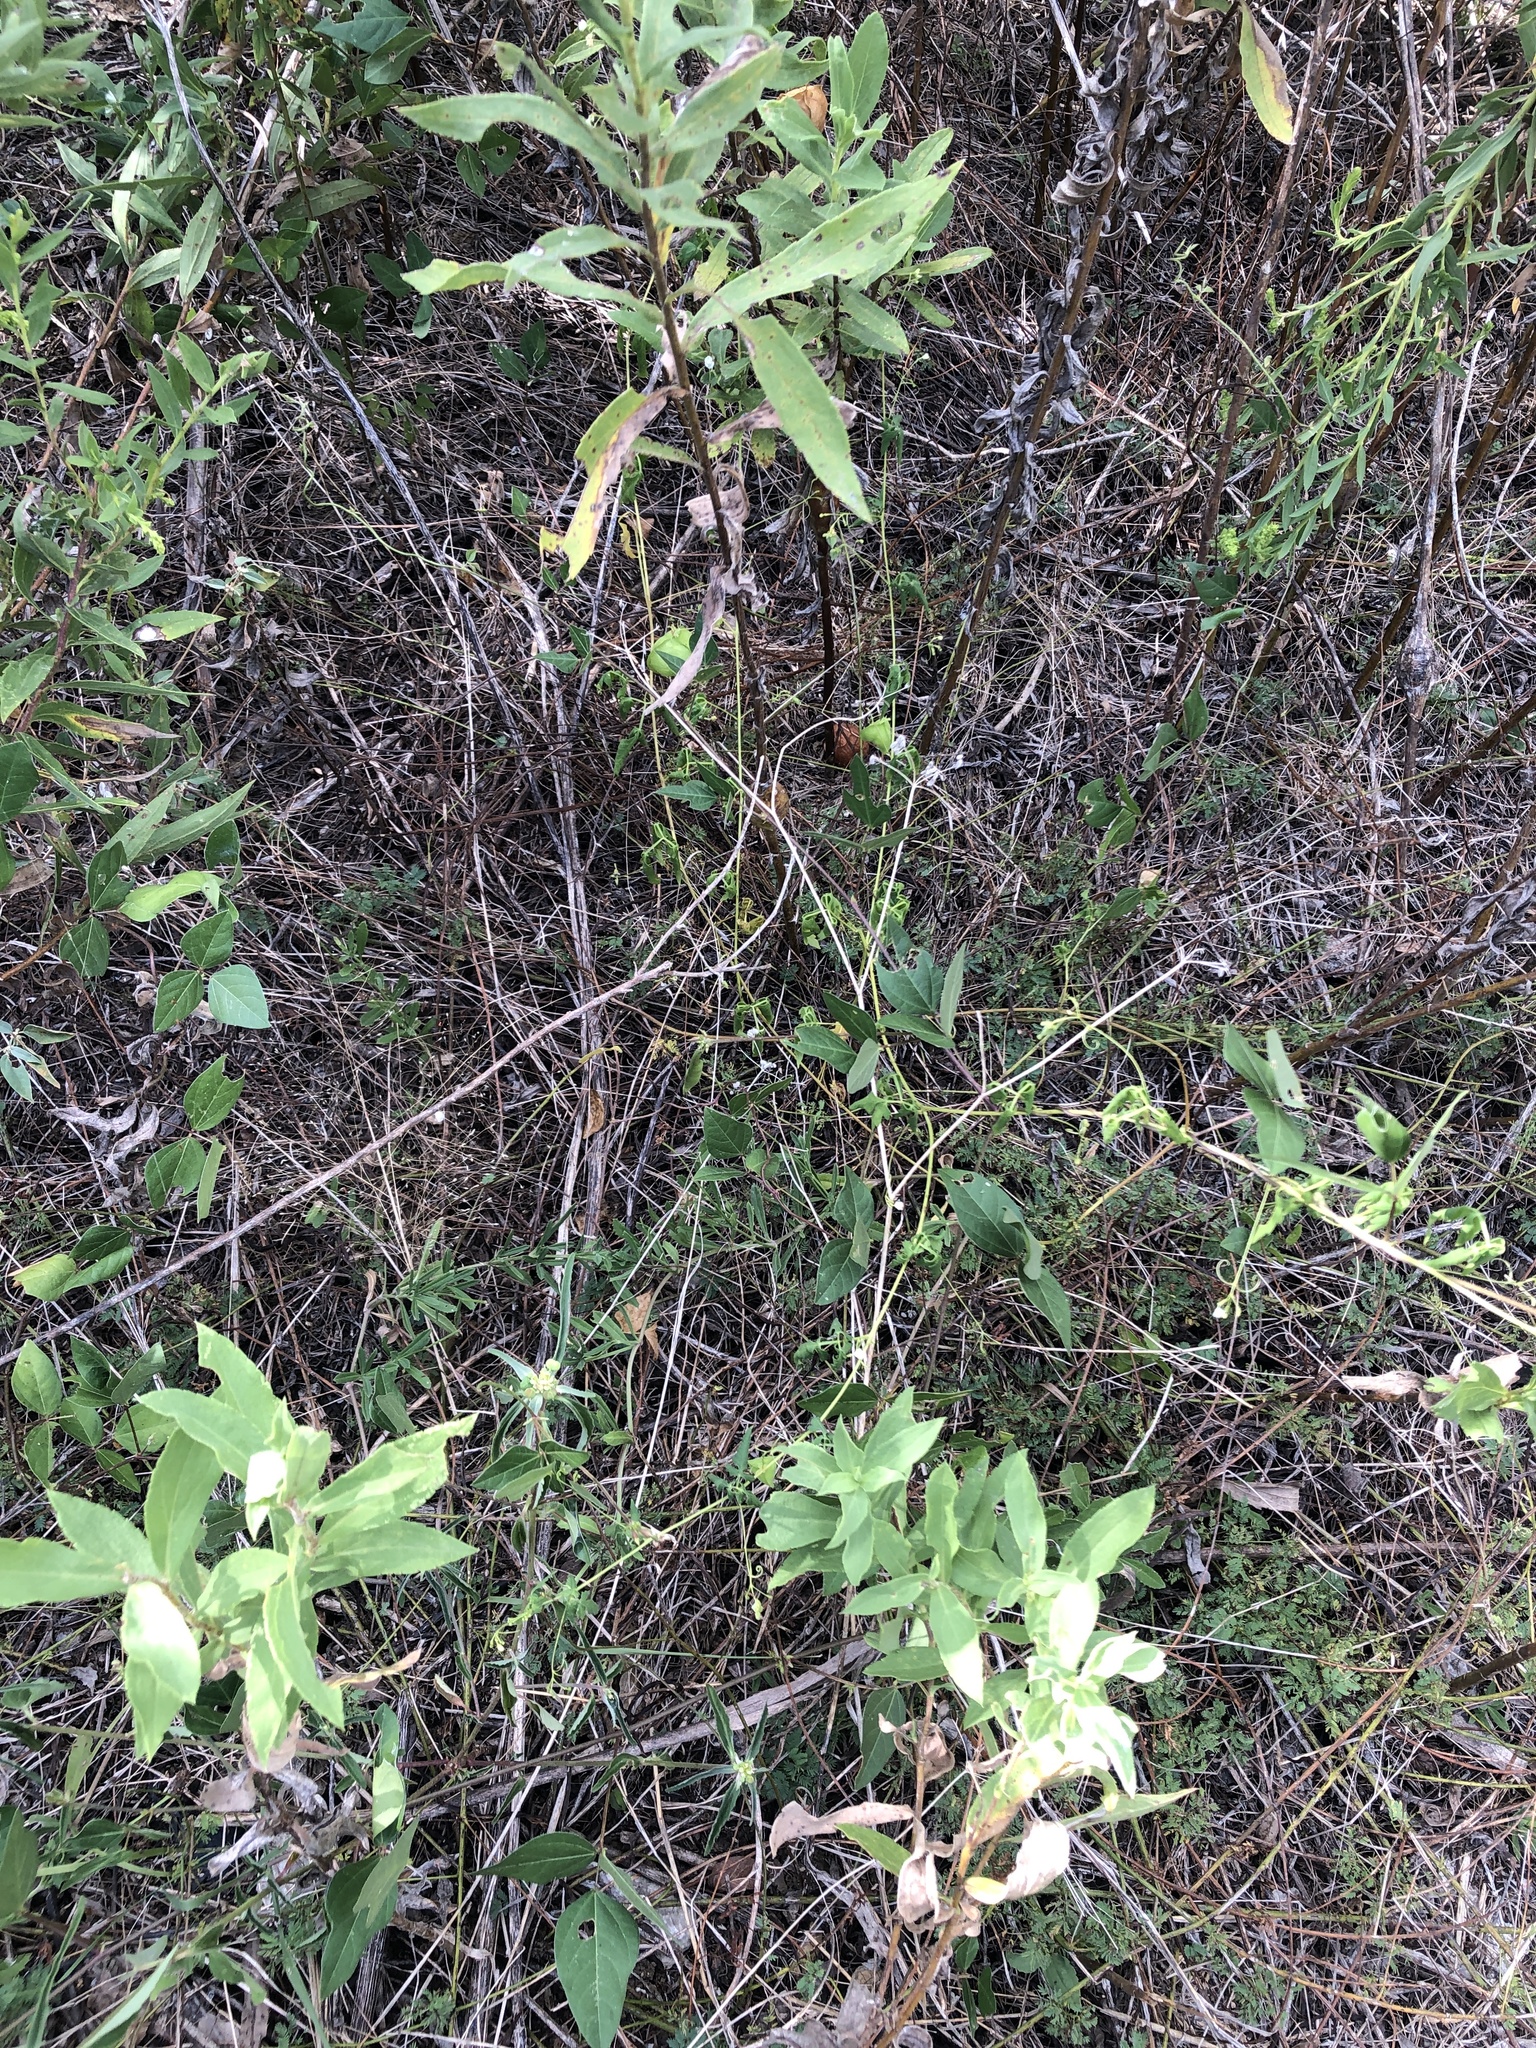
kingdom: Plantae
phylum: Tracheophyta
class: Magnoliopsida
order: Sapindales
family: Sapindaceae
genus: Cardiospermum
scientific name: Cardiospermum halicacabum
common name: Balloon vine
